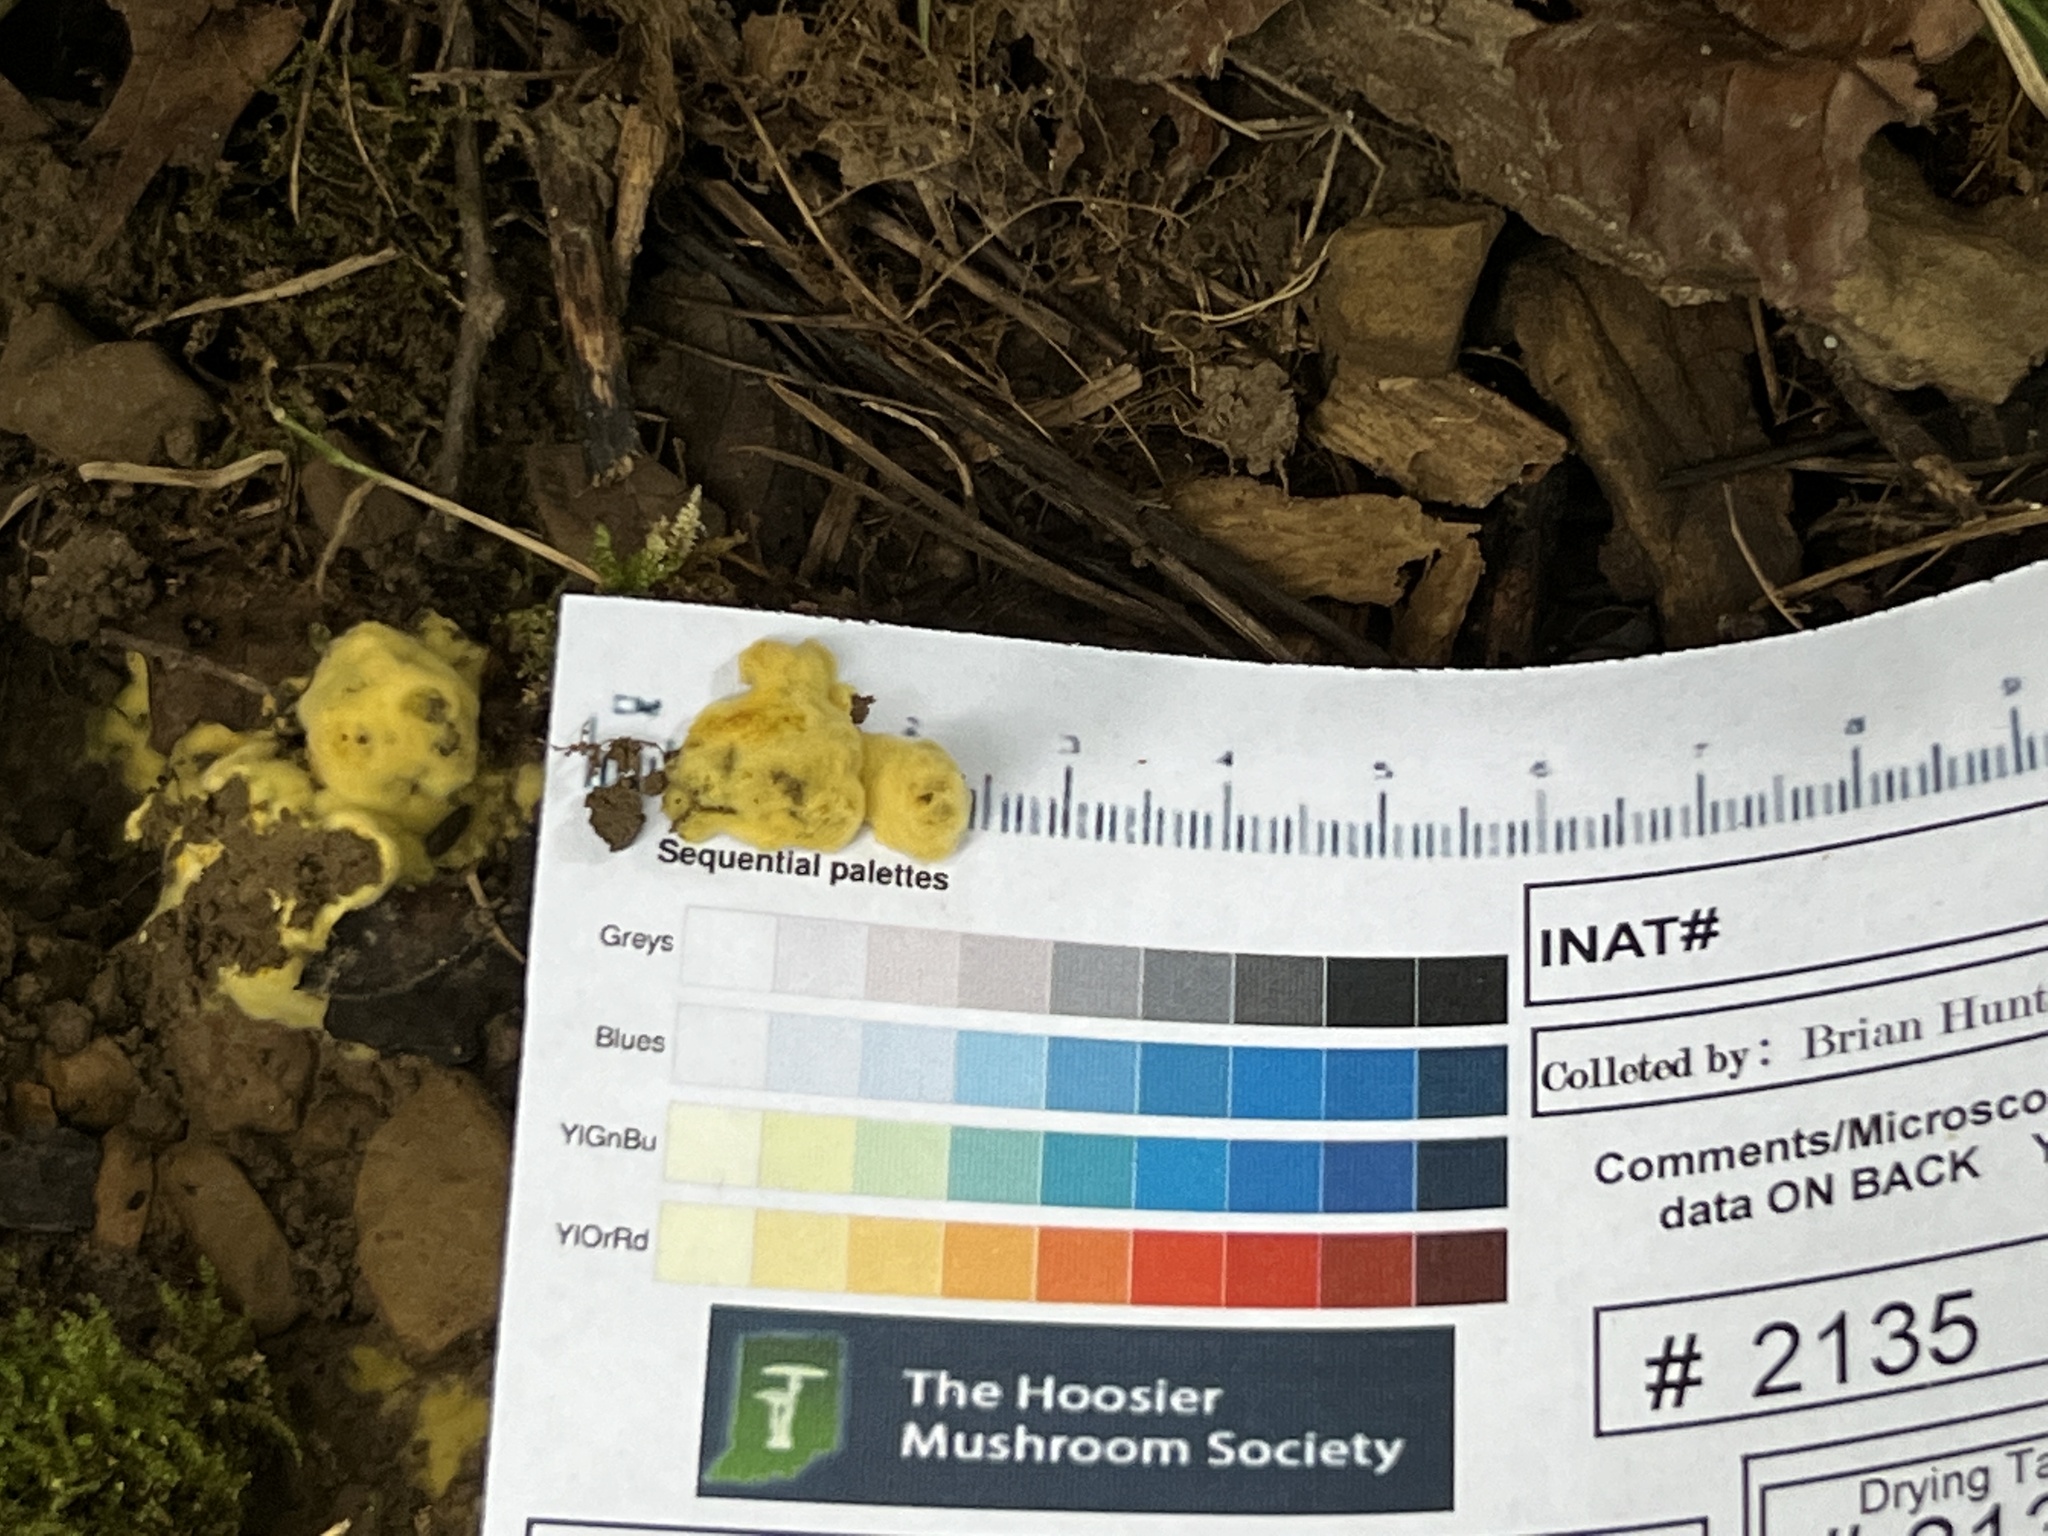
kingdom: Fungi
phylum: Ascomycota
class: Pezizomycetes
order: Pezizales
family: Pezizaceae
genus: Pachyphlodes
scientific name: Pachyphlodes annagardnerae
